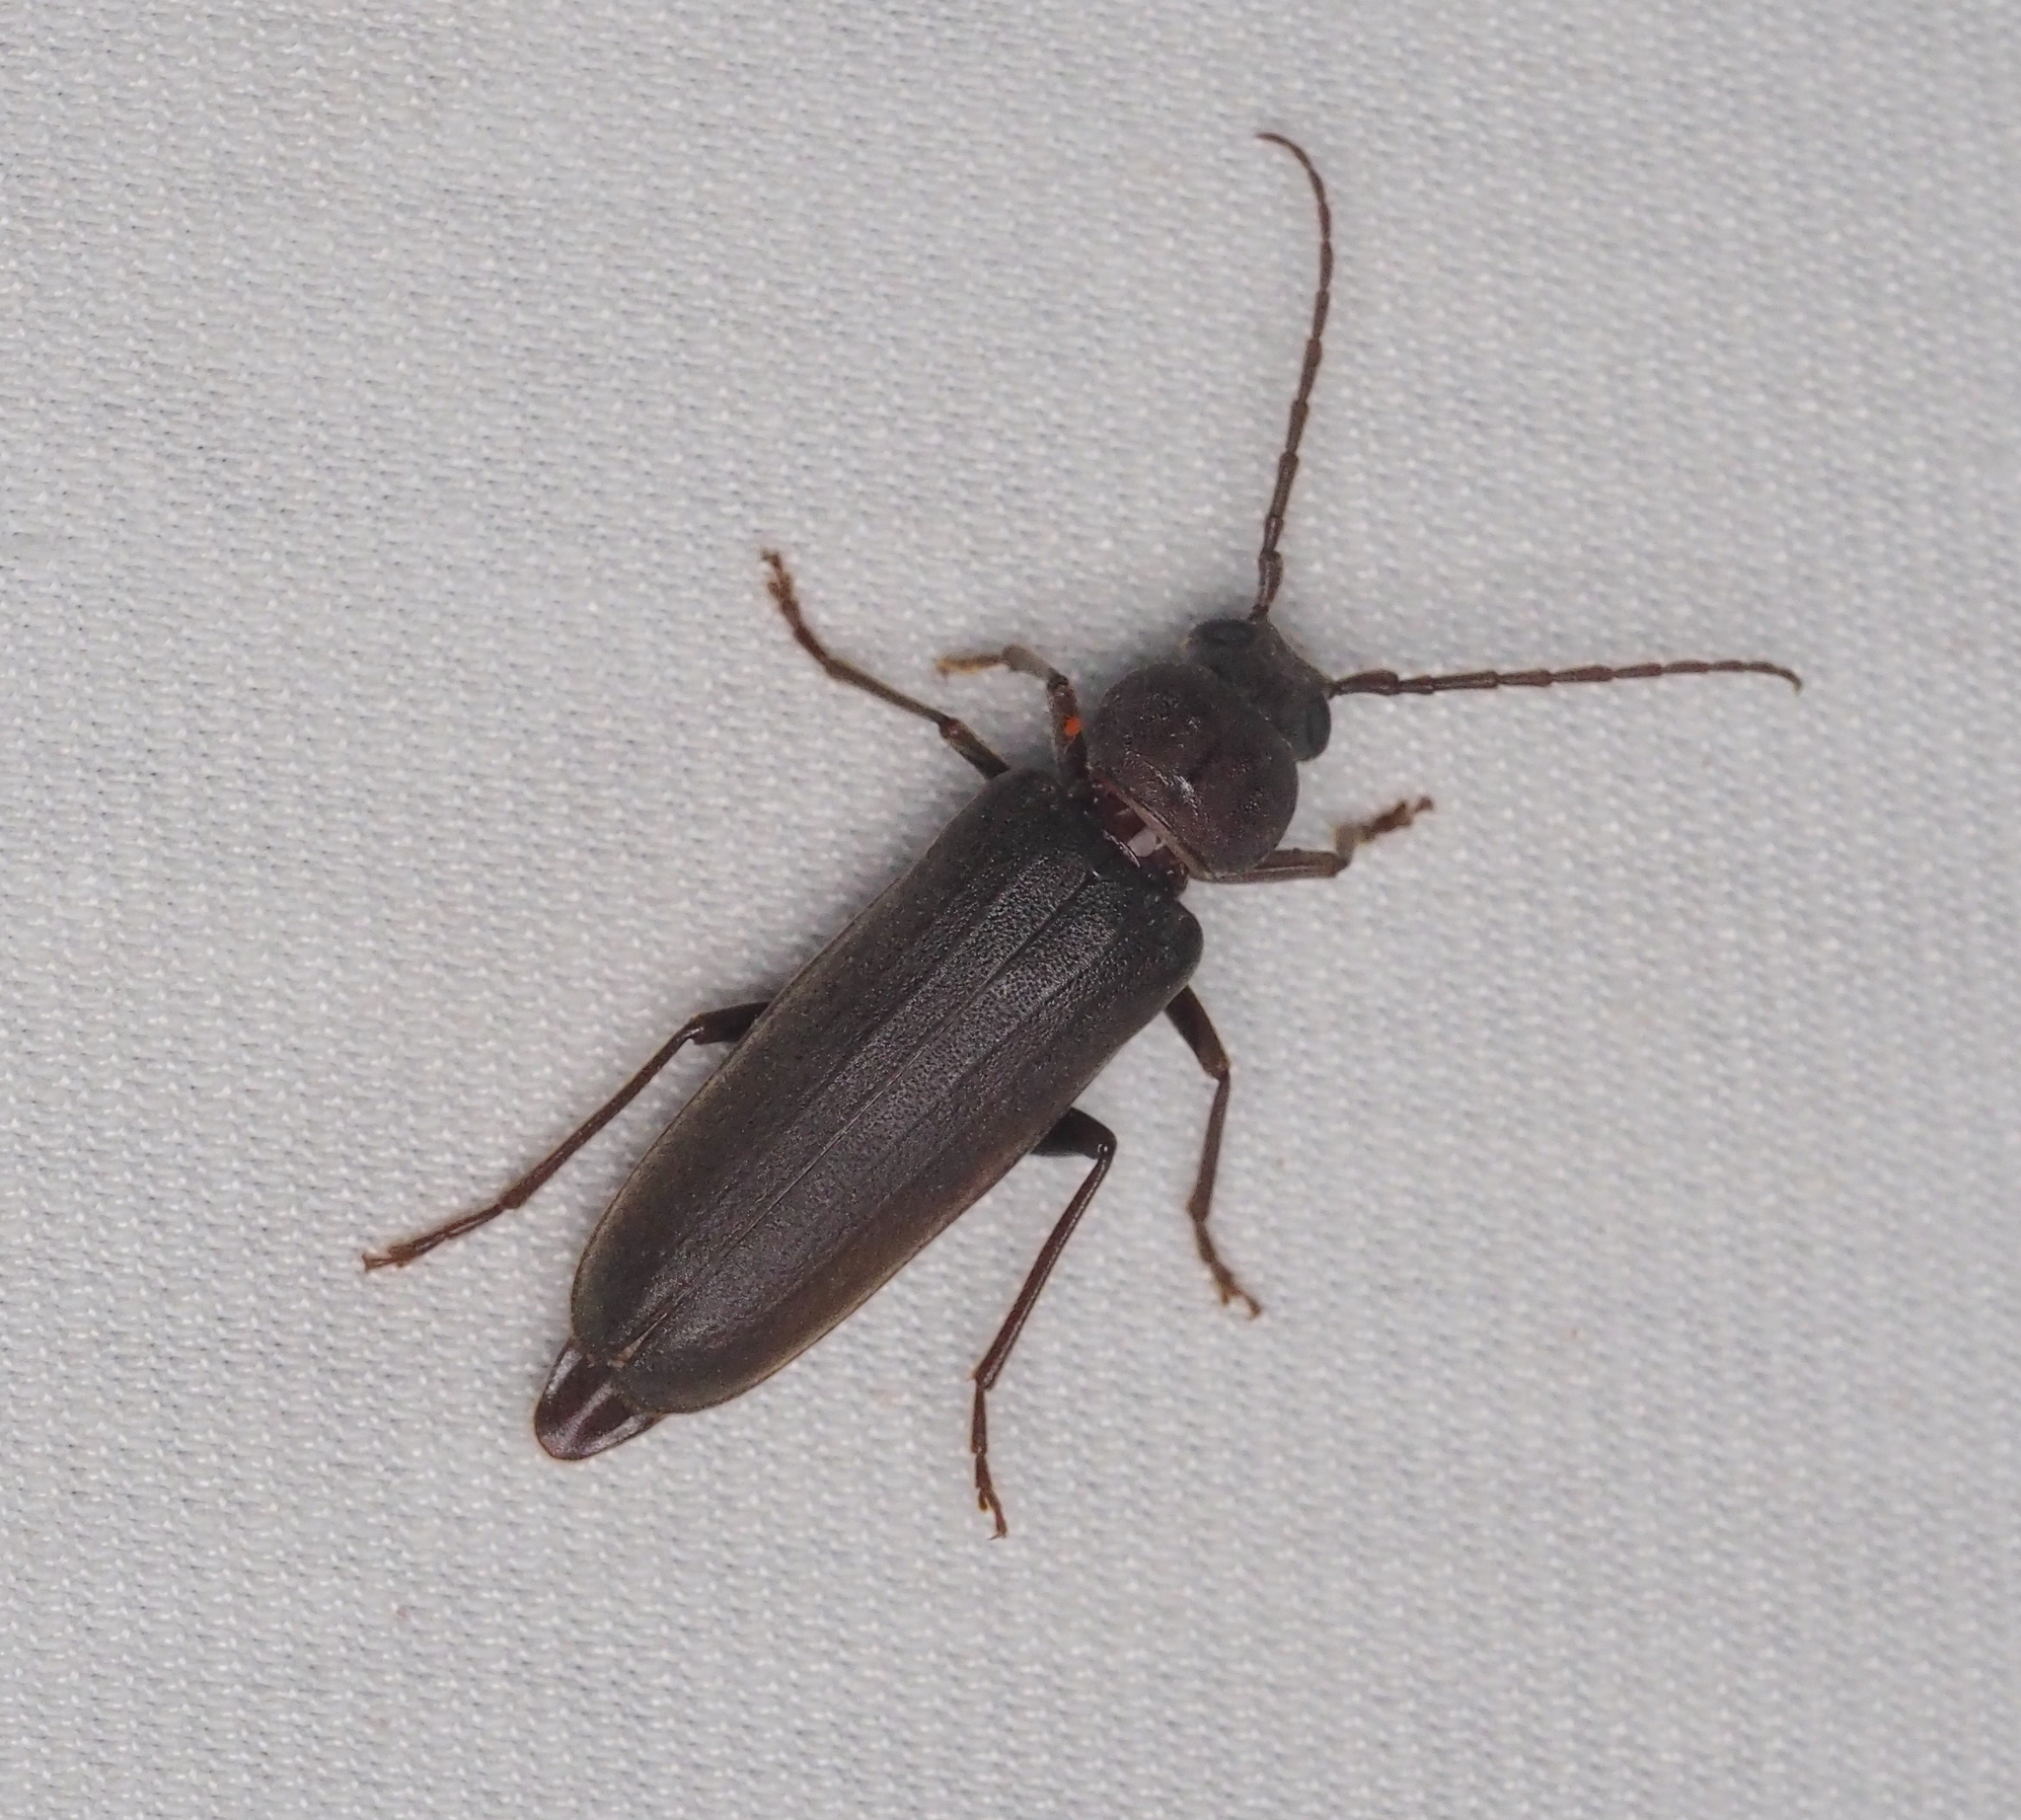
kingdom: Animalia
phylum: Arthropoda
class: Insecta
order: Coleoptera
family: Cerambycidae
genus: Arhopalus
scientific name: Arhopalus rusticus
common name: Rust pine borer
